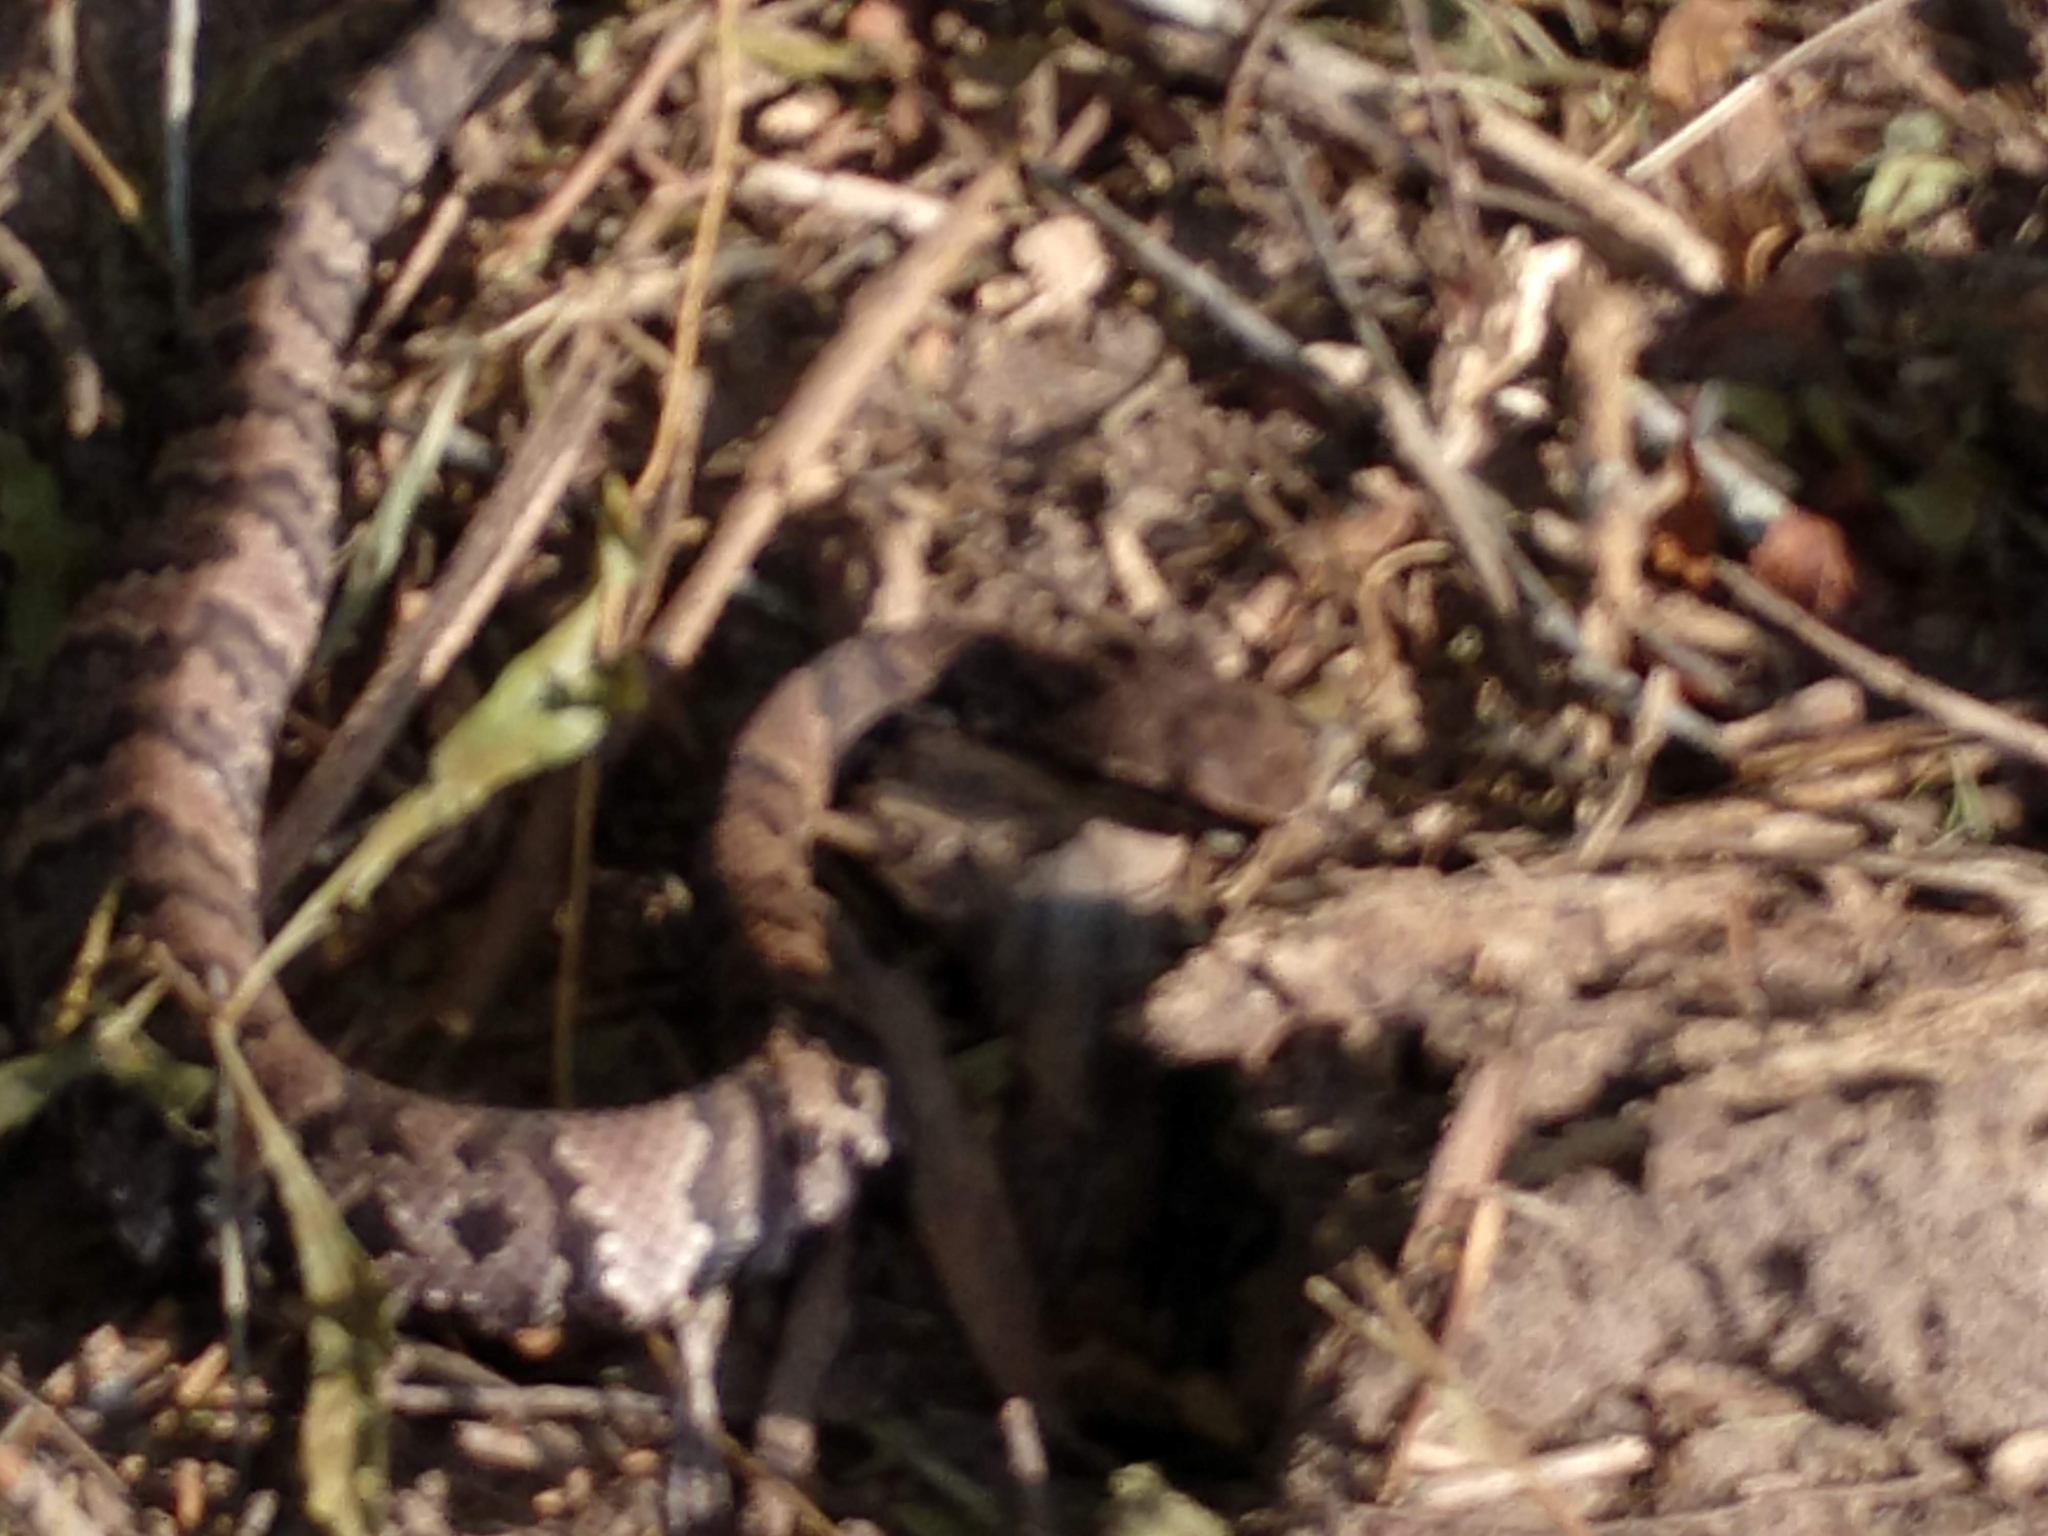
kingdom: Animalia
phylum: Chordata
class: Squamata
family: Viperidae
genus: Agkistrodon
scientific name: Agkistrodon piscivorus
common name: Cottonmouth
